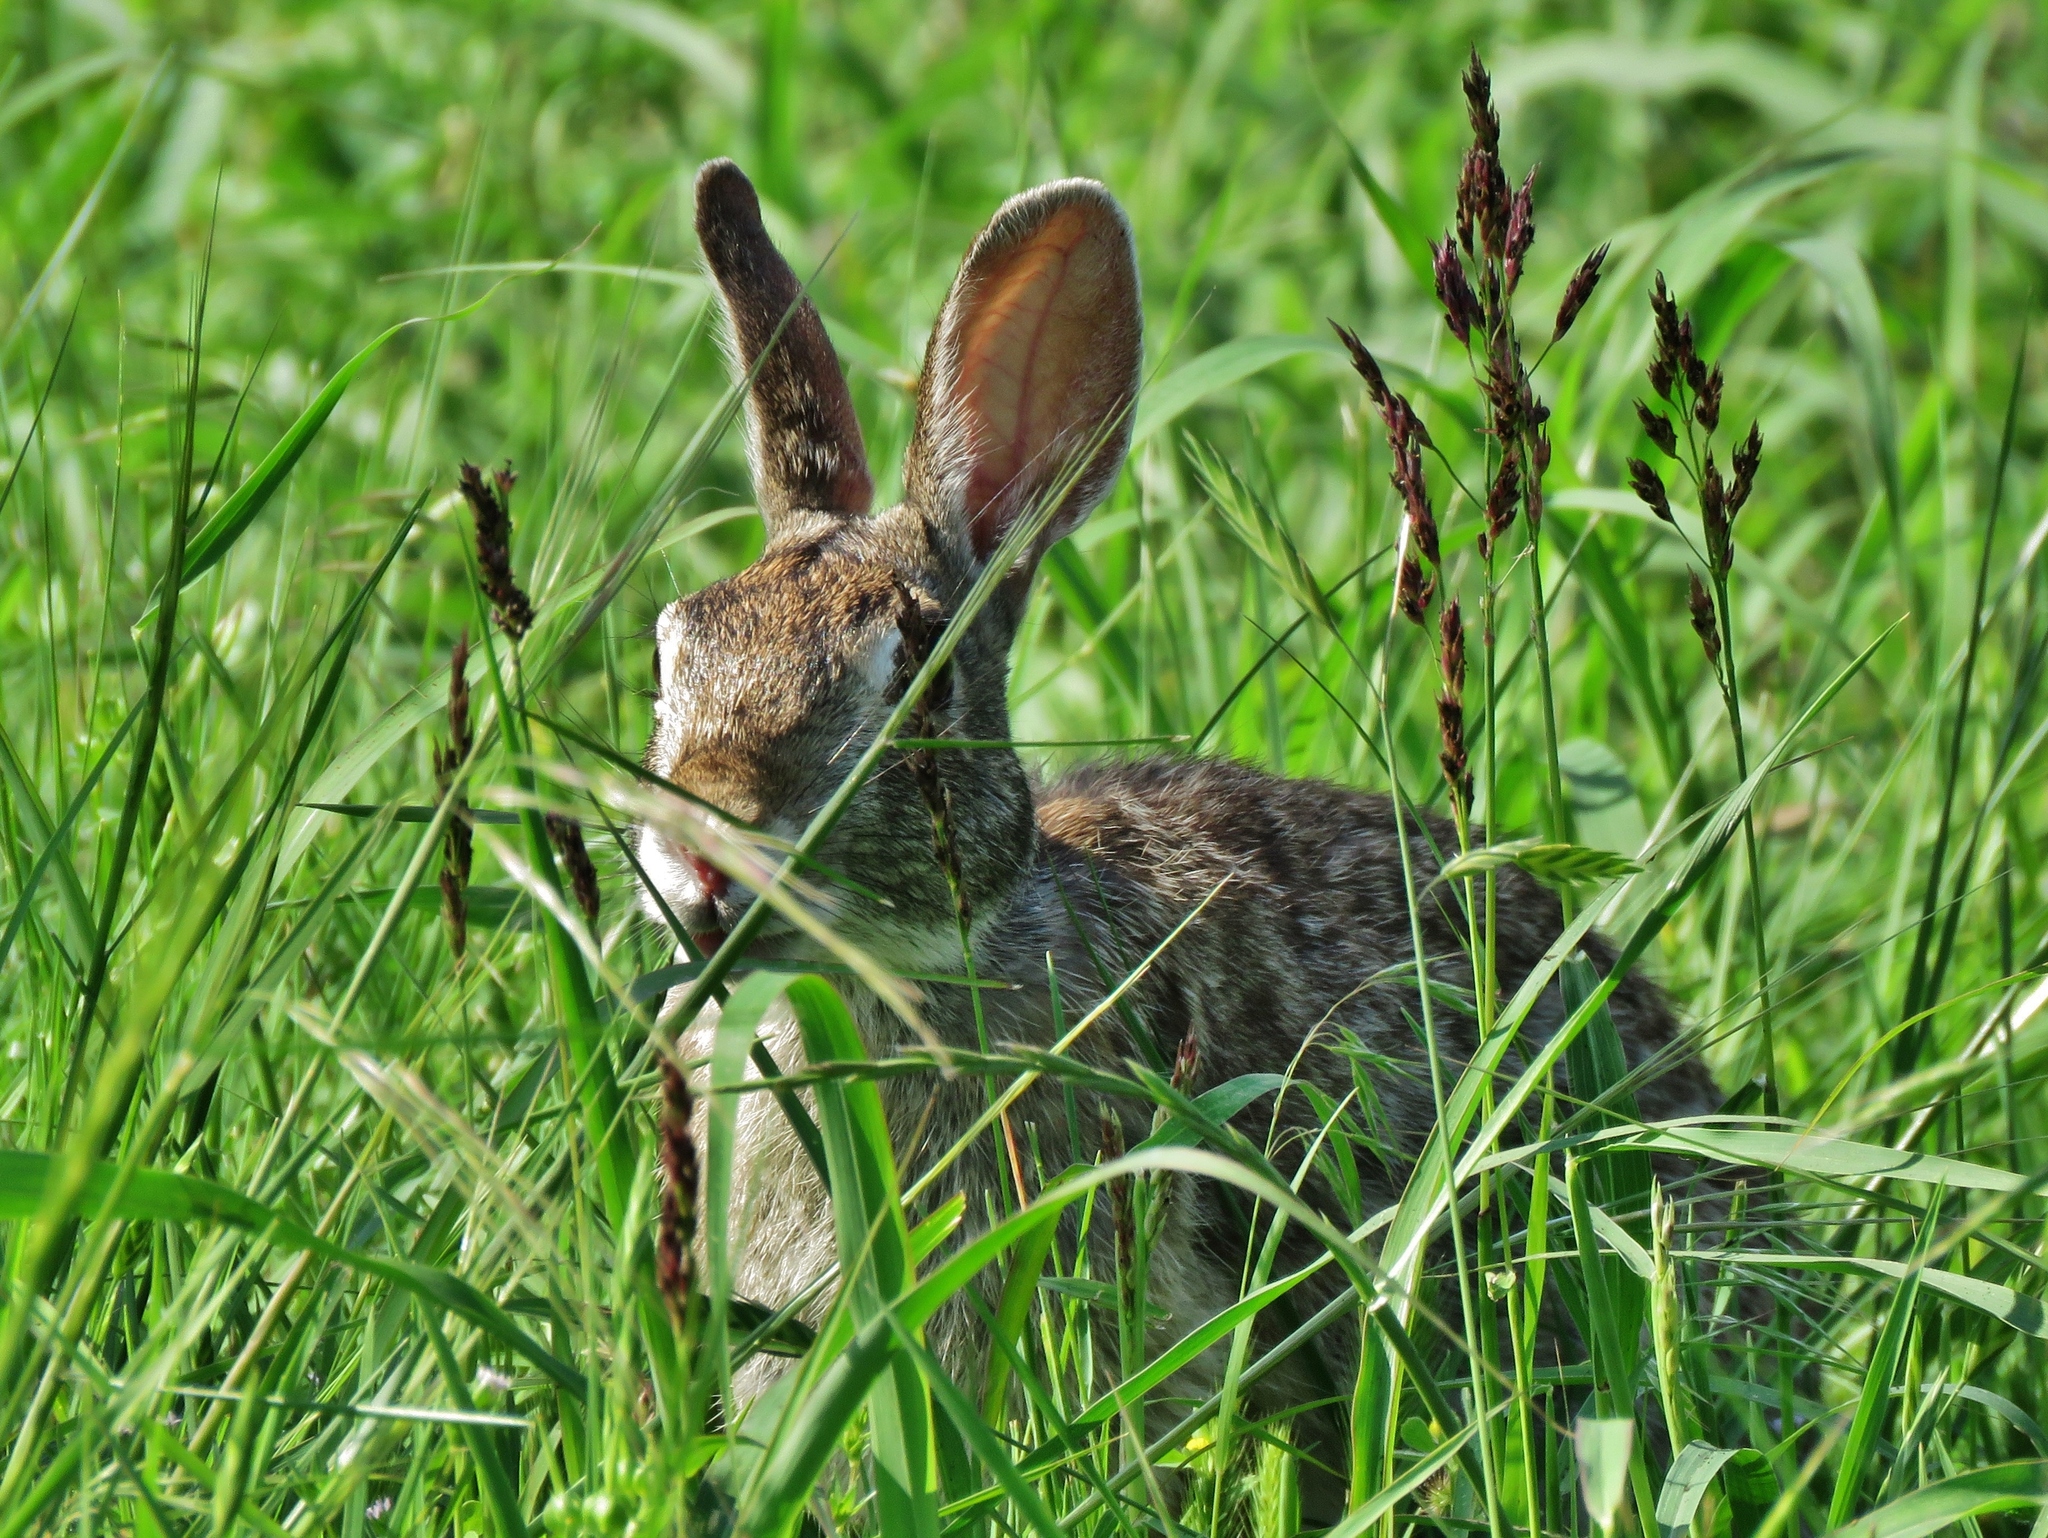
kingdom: Animalia
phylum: Chordata
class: Mammalia
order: Lagomorpha
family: Leporidae
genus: Sylvilagus
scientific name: Sylvilagus floridanus
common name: Eastern cottontail
